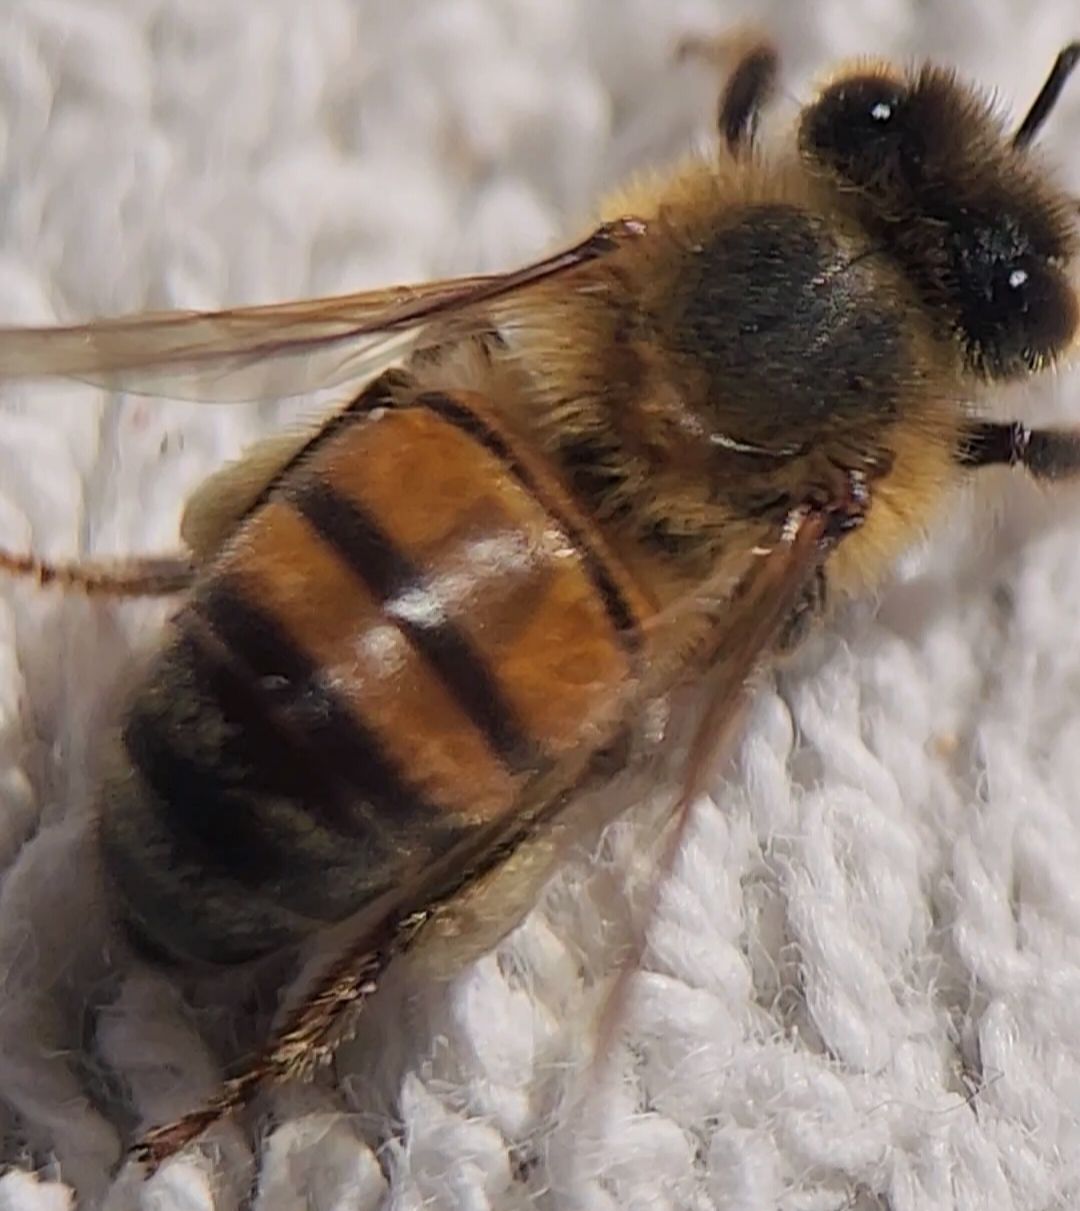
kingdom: Animalia
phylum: Arthropoda
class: Insecta
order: Hymenoptera
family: Apidae
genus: Apis
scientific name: Apis mellifera
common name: Honey bee
